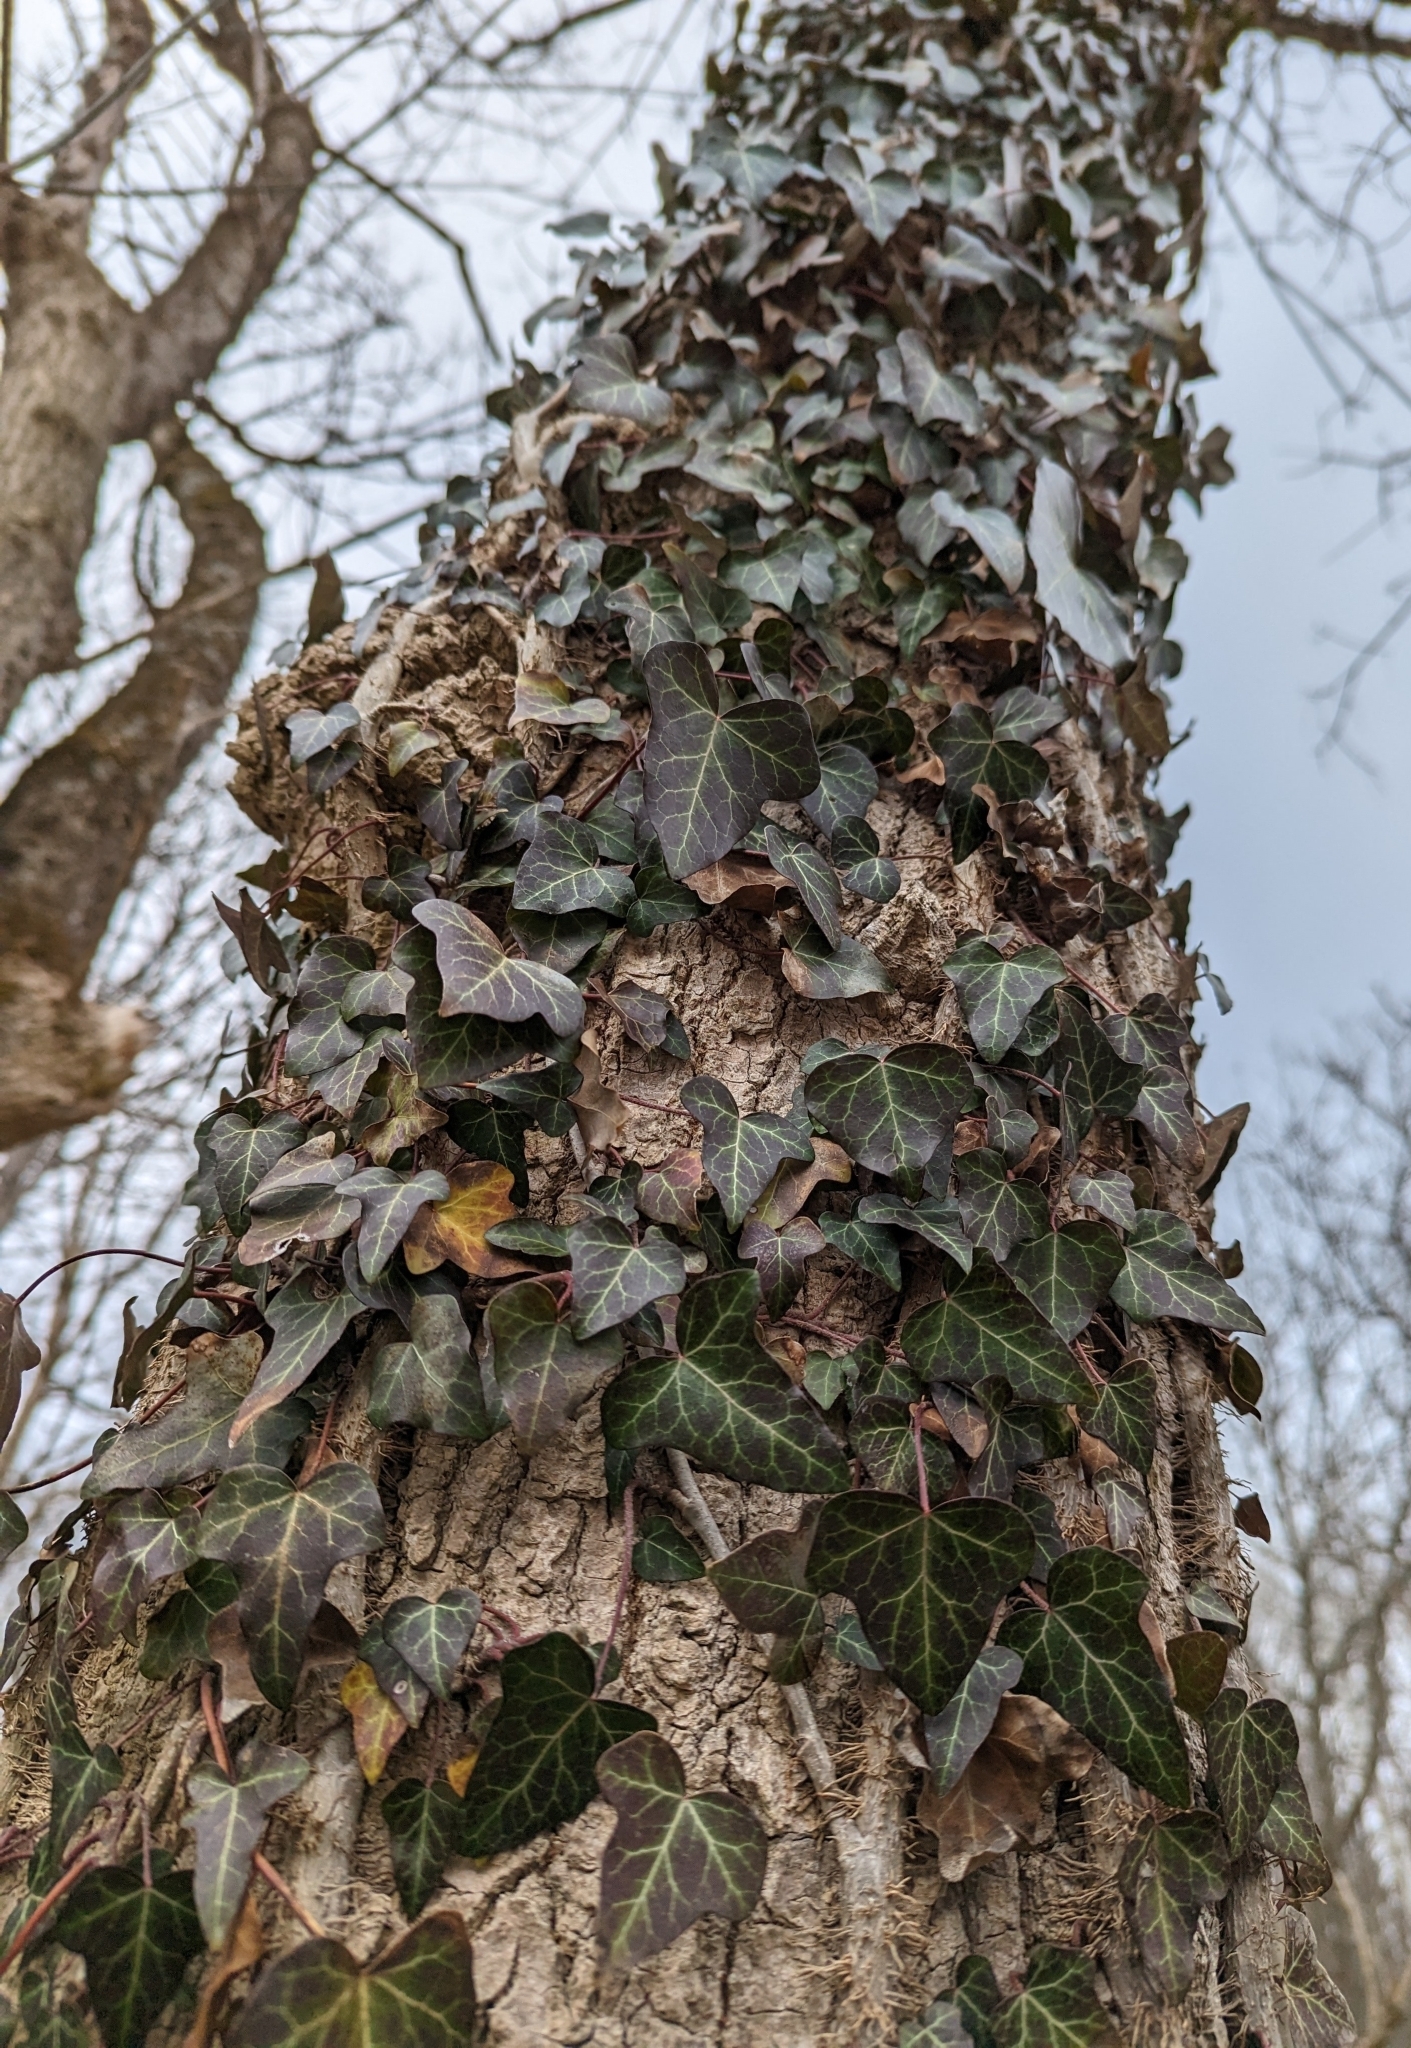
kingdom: Plantae
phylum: Tracheophyta
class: Magnoliopsida
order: Apiales
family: Araliaceae
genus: Hedera
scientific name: Hedera helix
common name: Ivy
